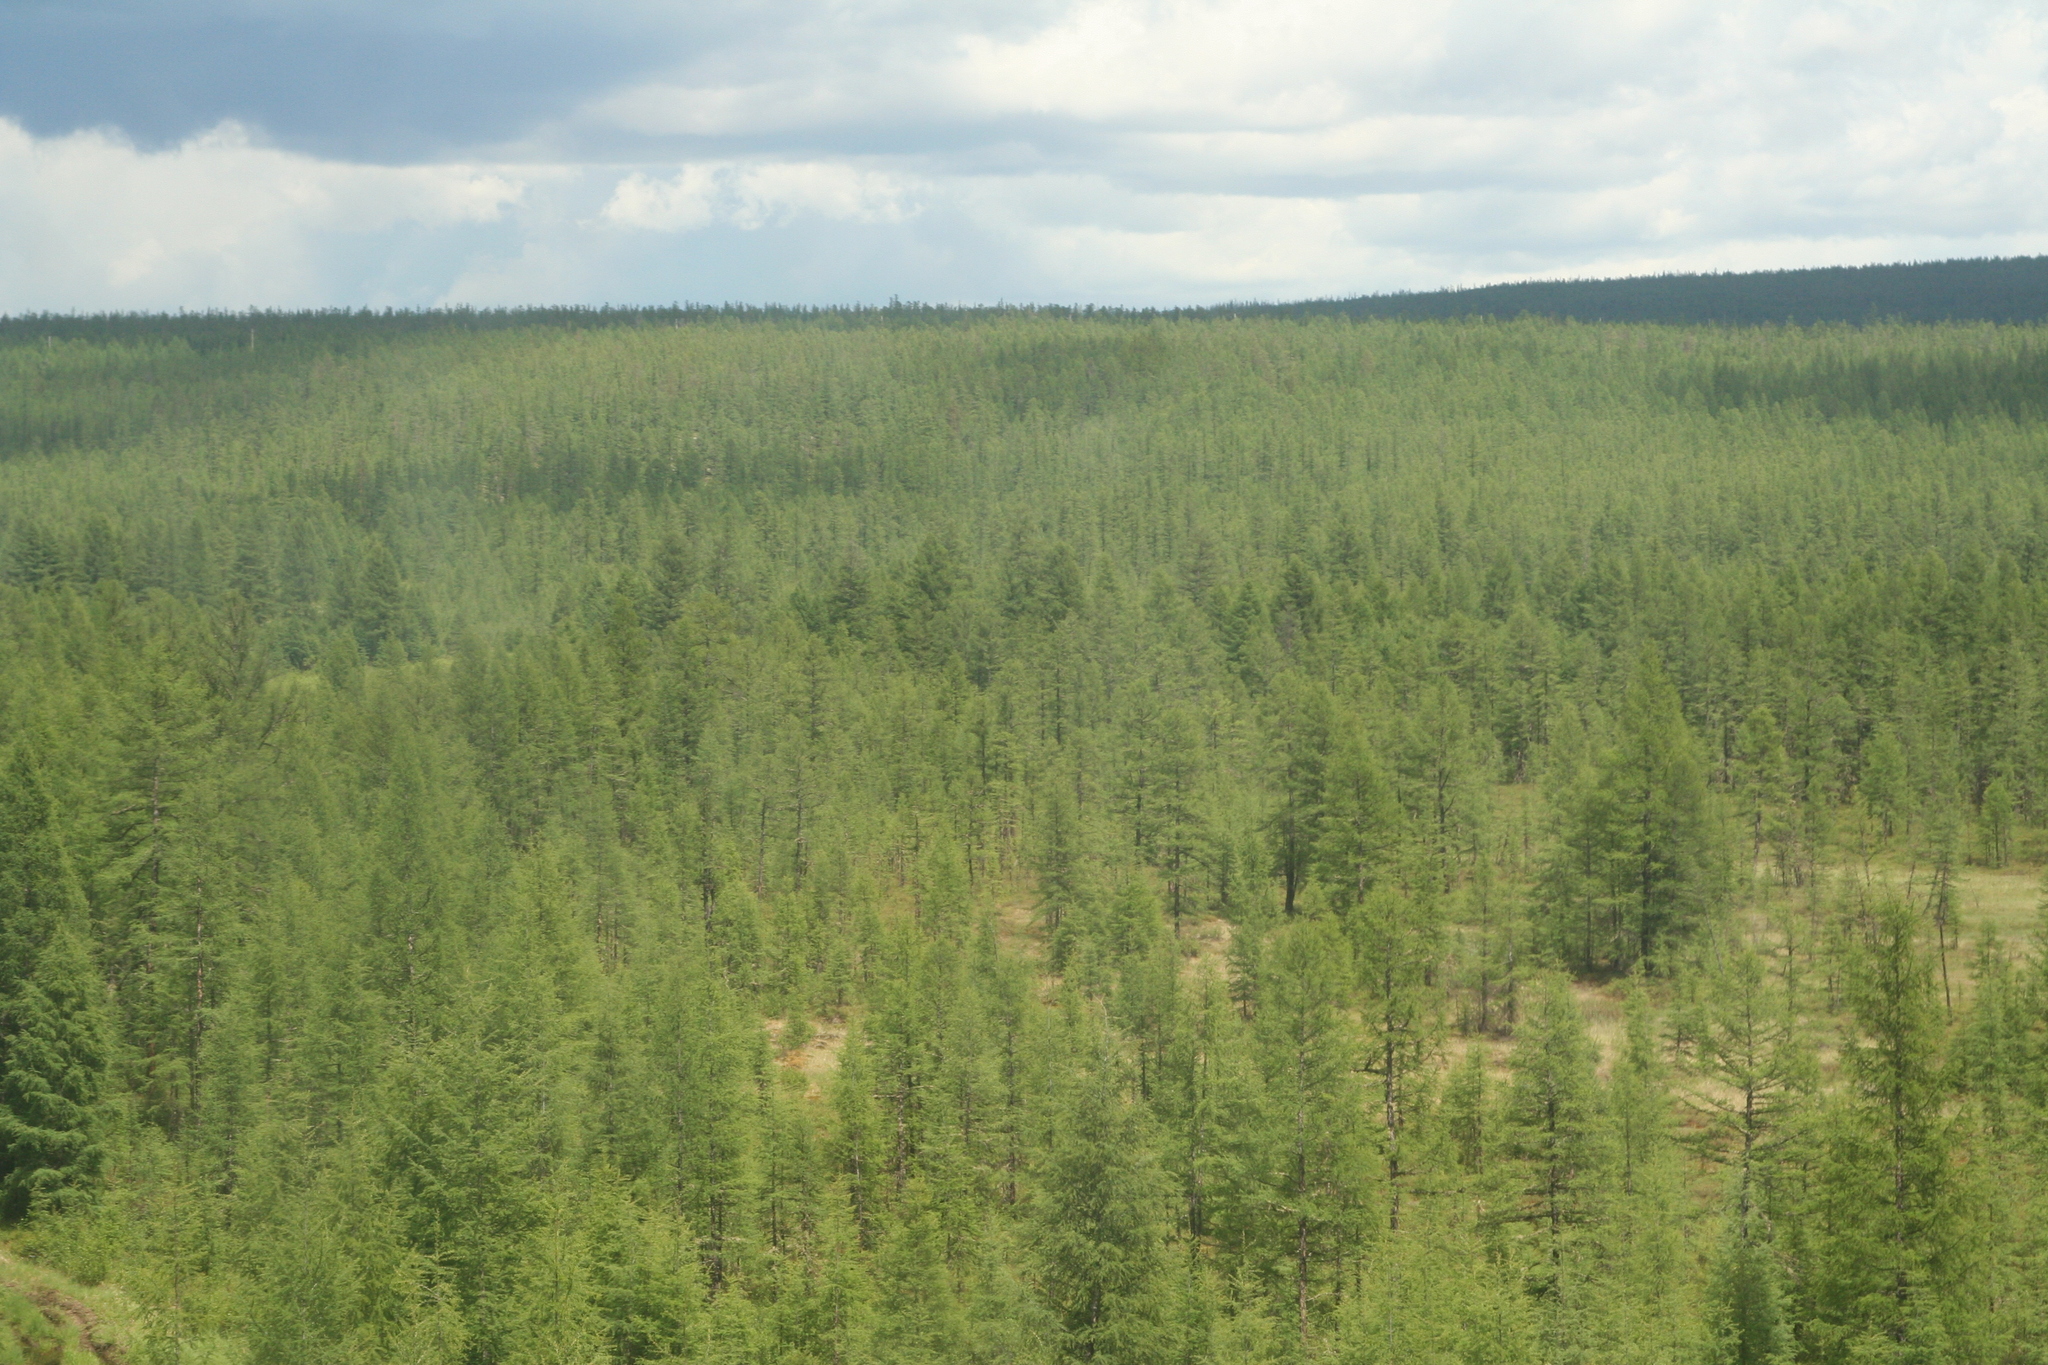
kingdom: Plantae
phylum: Tracheophyta
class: Pinopsida
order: Pinales
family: Pinaceae
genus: Larix
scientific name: Larix gmelinii
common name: Dahurian larch
